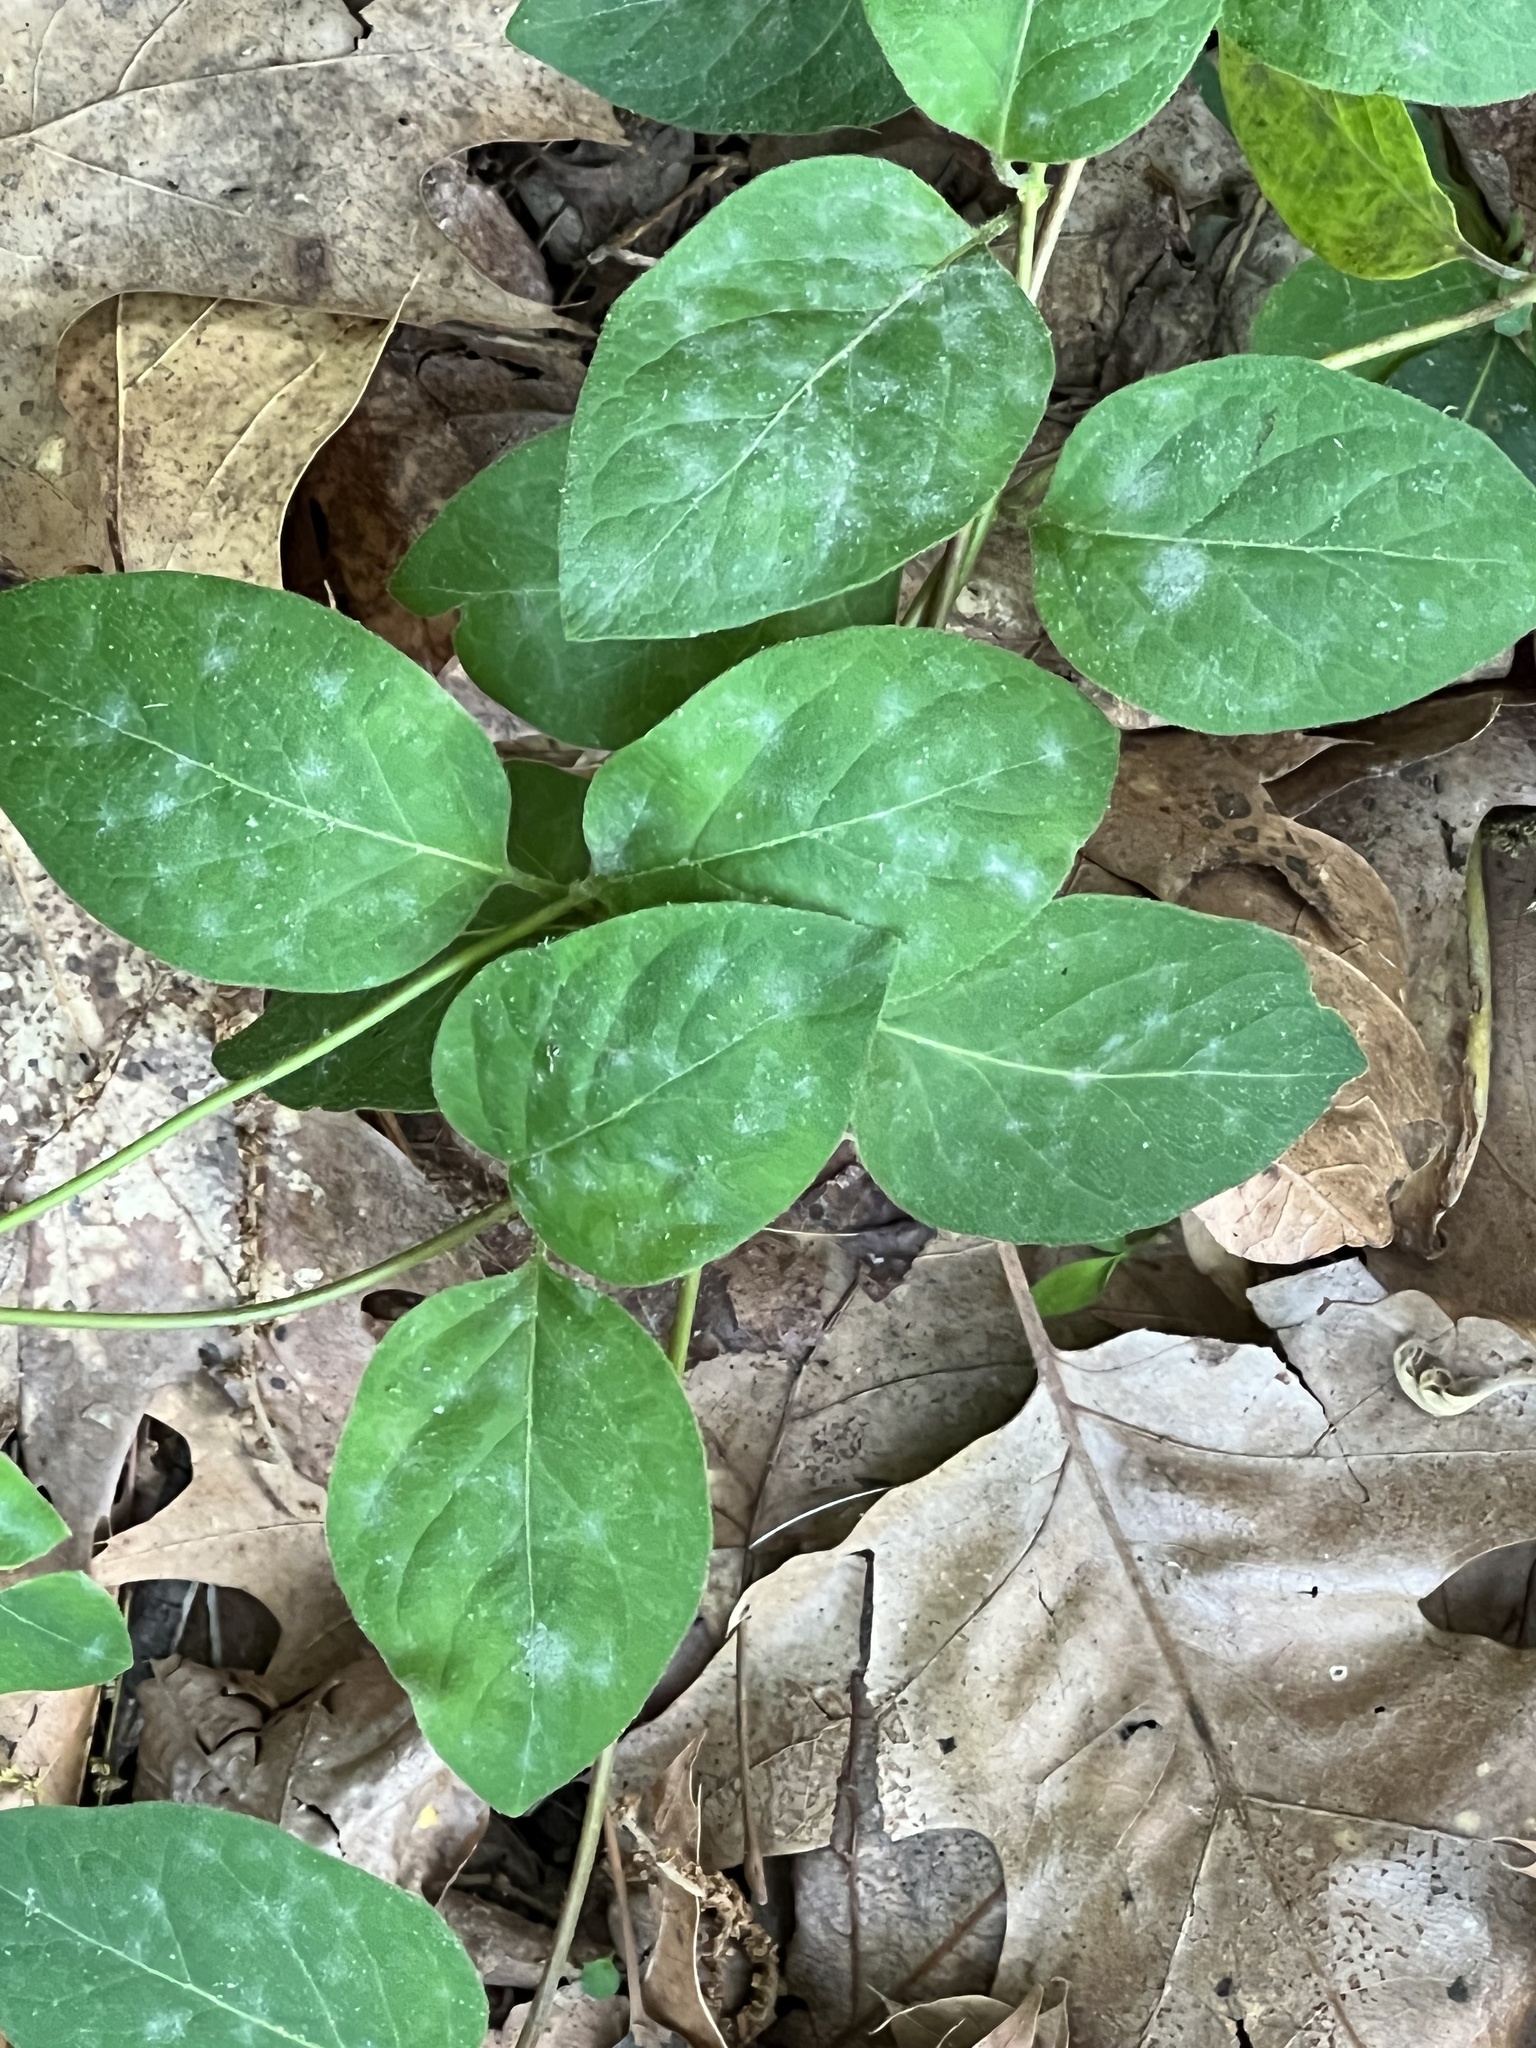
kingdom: Fungi
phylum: Ascomycota
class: Leotiomycetes
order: Helotiales
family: Erysiphaceae
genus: Erysiphe
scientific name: Erysiphe lonicerae
